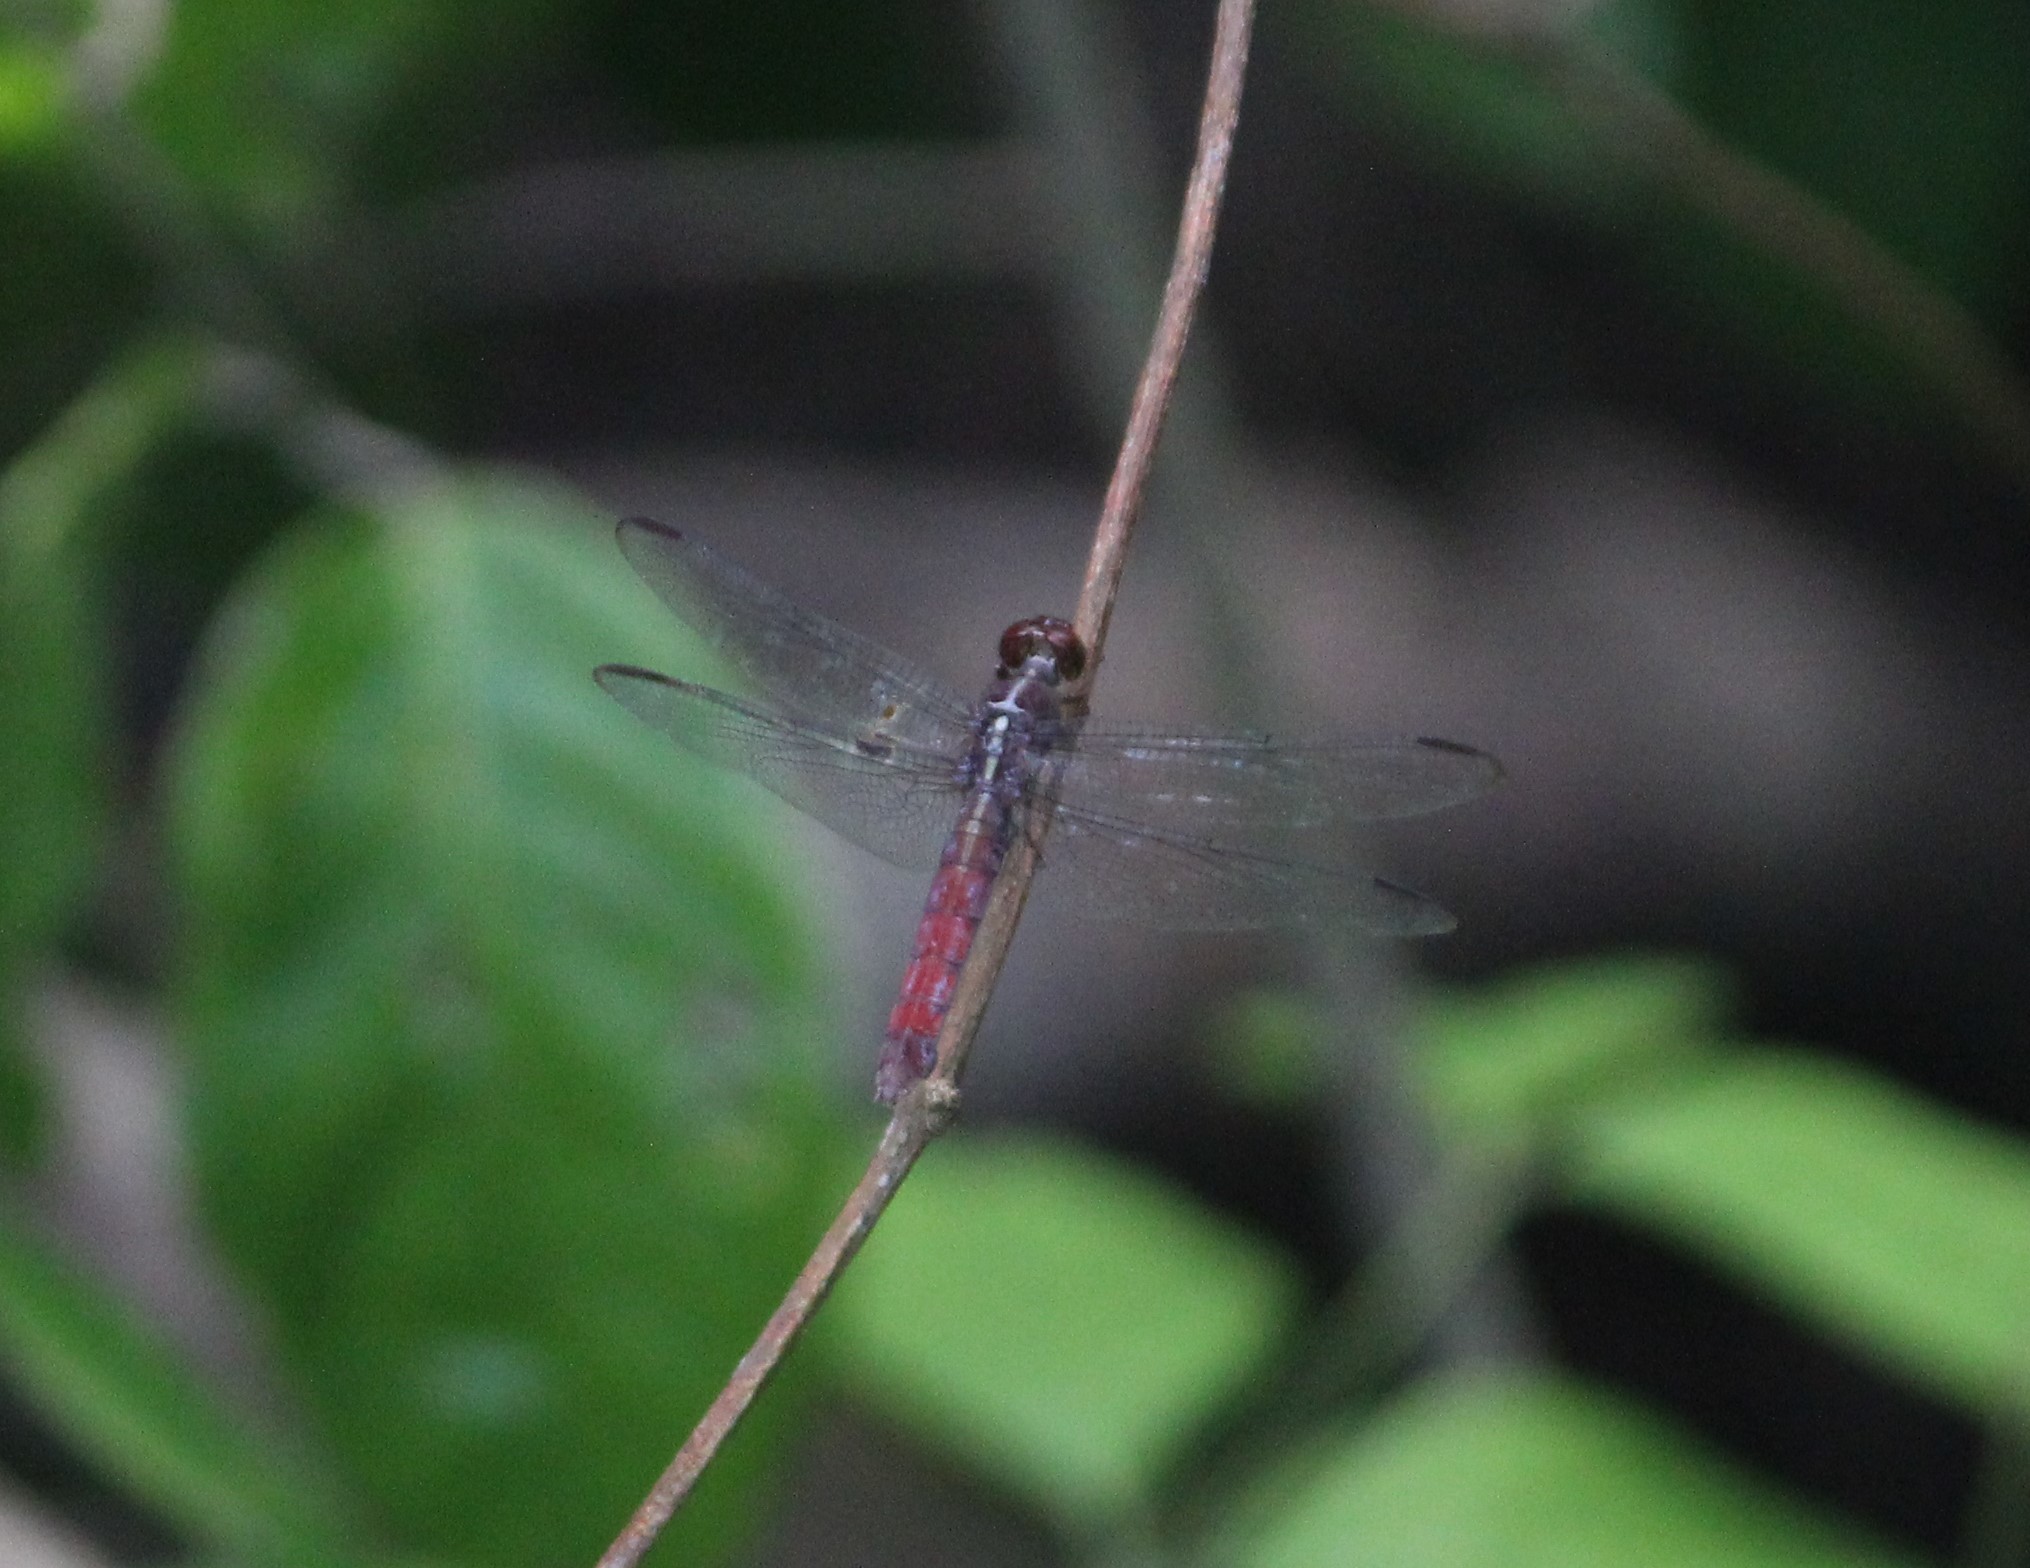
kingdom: Animalia
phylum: Arthropoda
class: Insecta
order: Odonata
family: Libellulidae
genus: Libellula
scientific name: Libellula herculea
